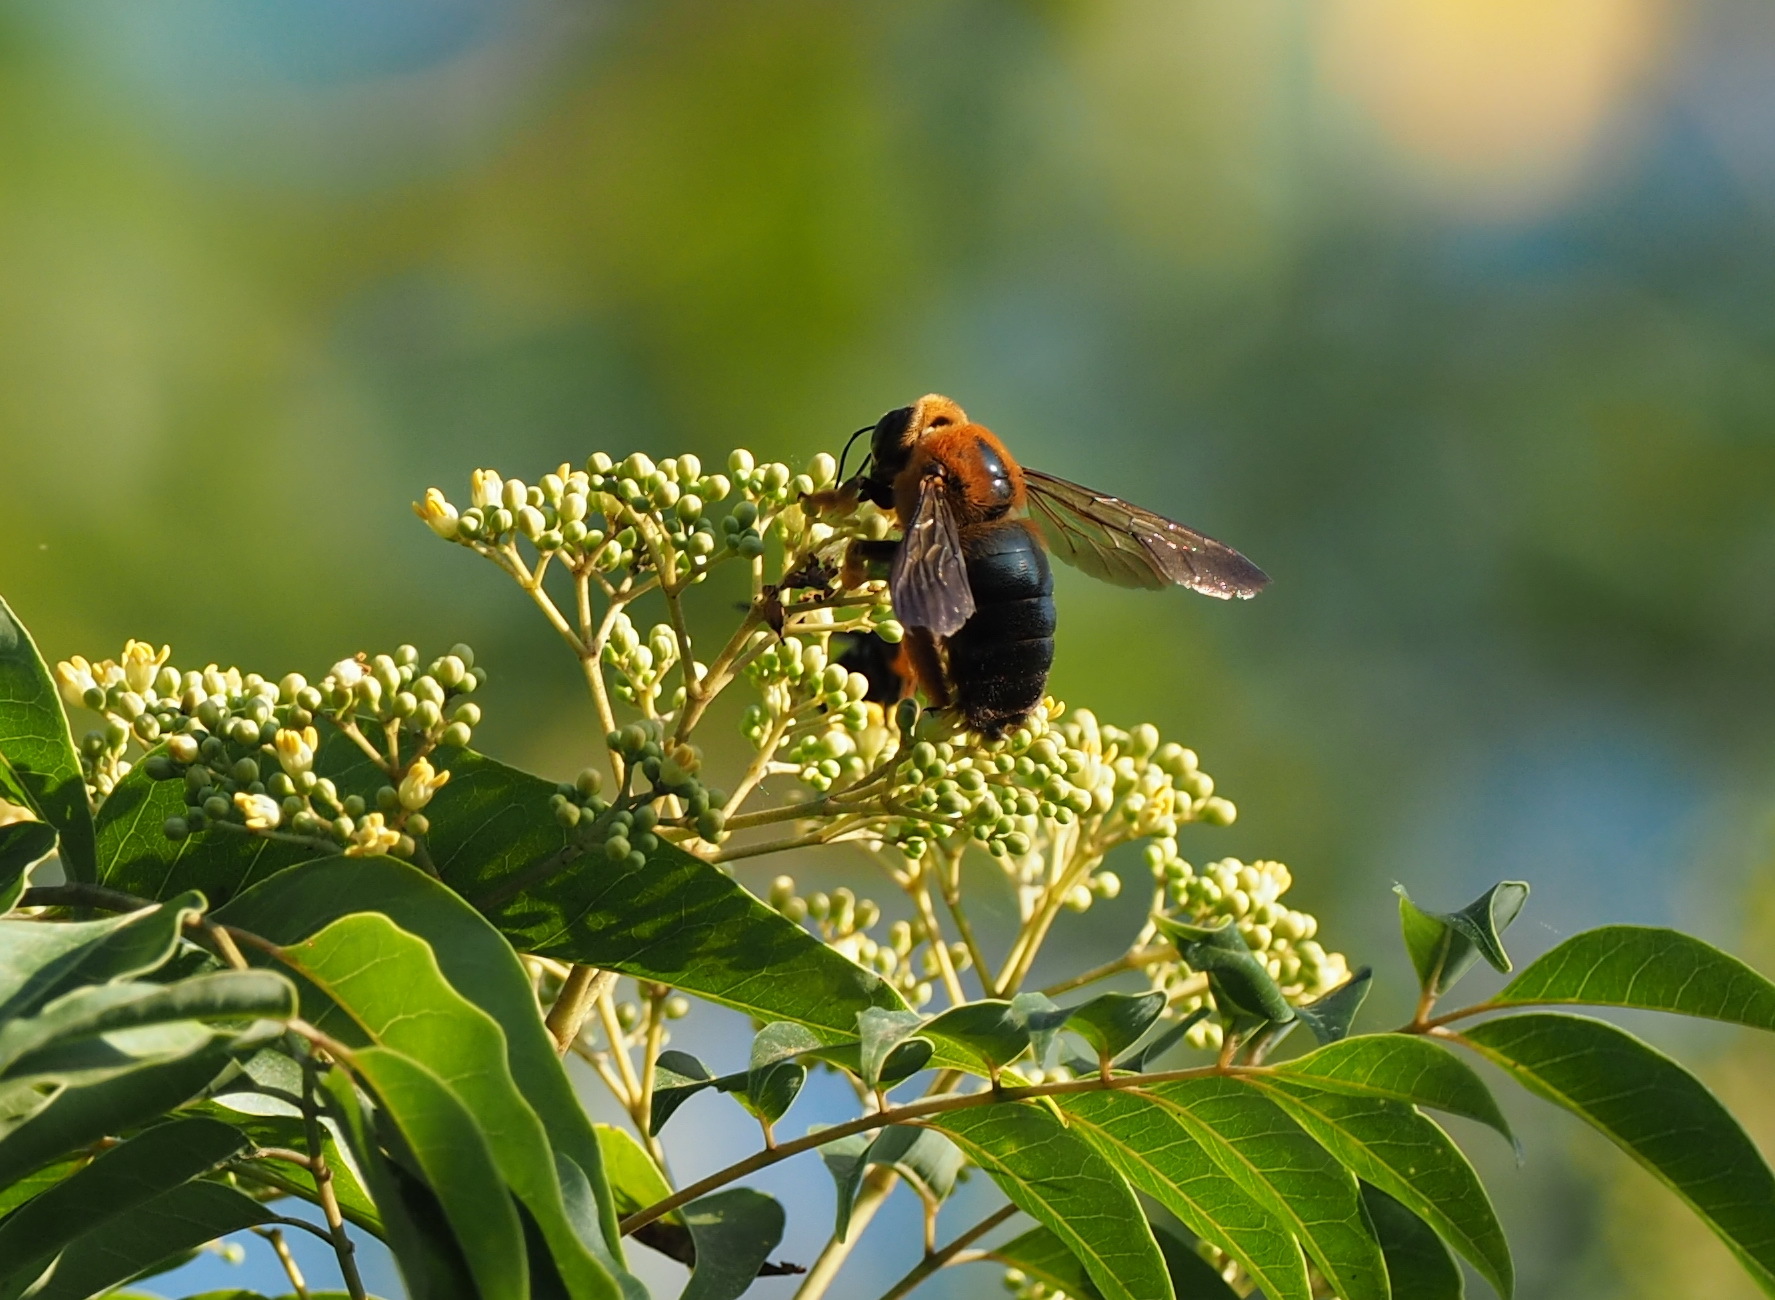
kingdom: Animalia
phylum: Arthropoda
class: Insecta
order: Hymenoptera
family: Apidae
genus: Xylocopa
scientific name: Xylocopa ruficeps
